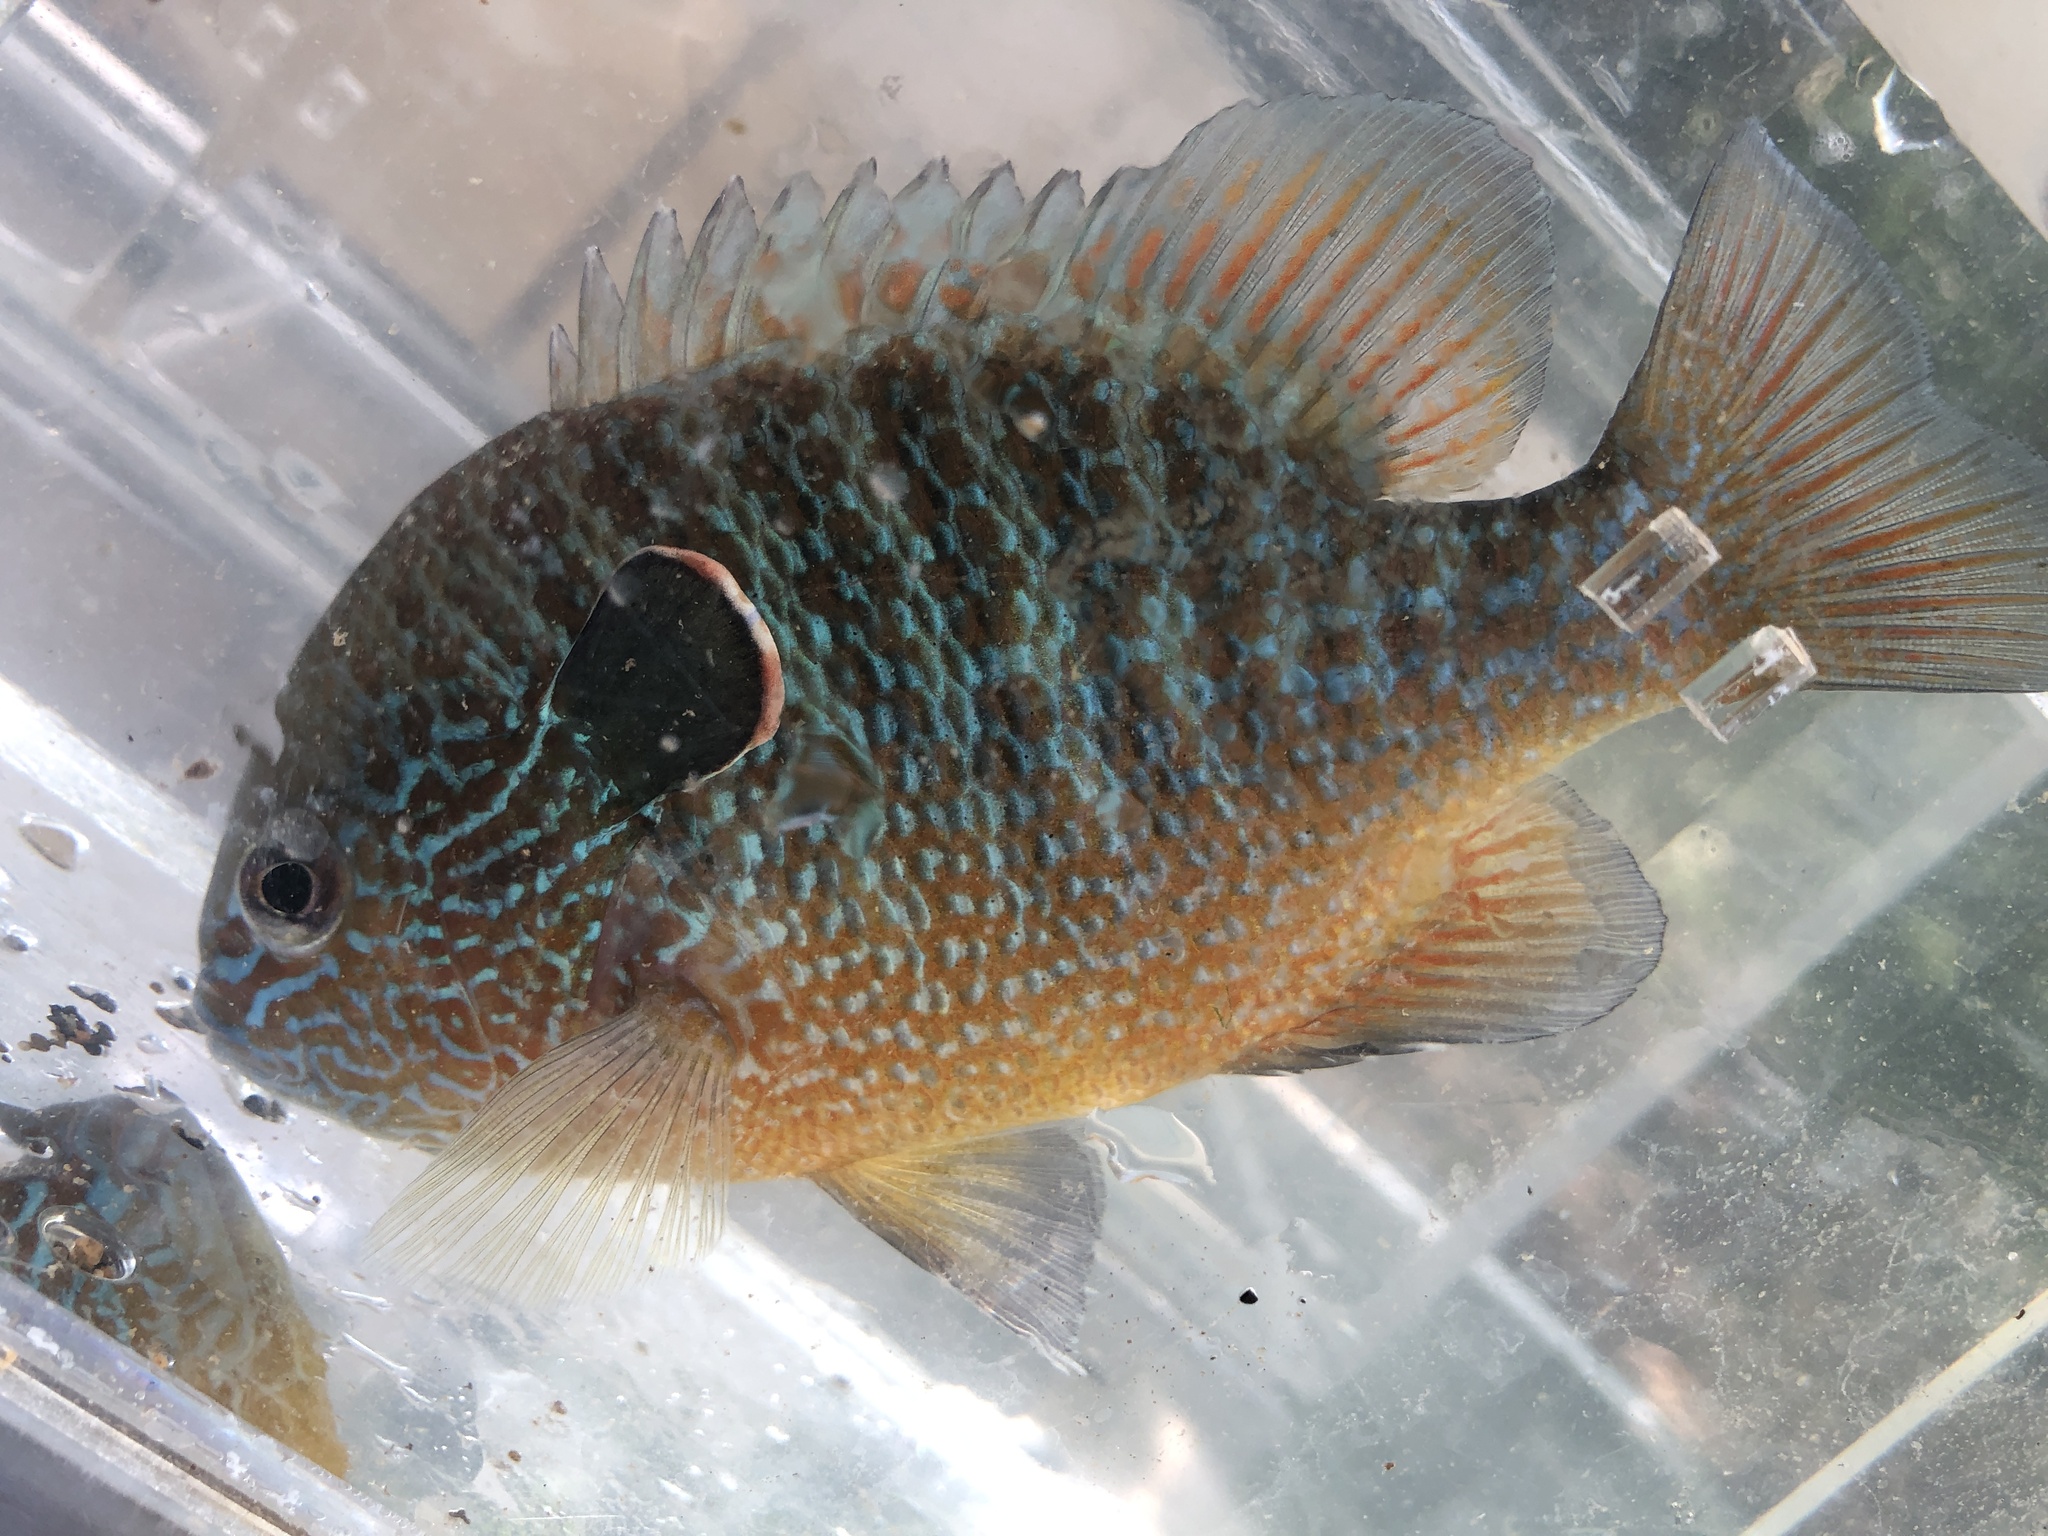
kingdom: Animalia
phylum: Chordata
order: Perciformes
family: Centrarchidae
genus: Lepomis
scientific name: Lepomis megalotis
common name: Longear sunfish
